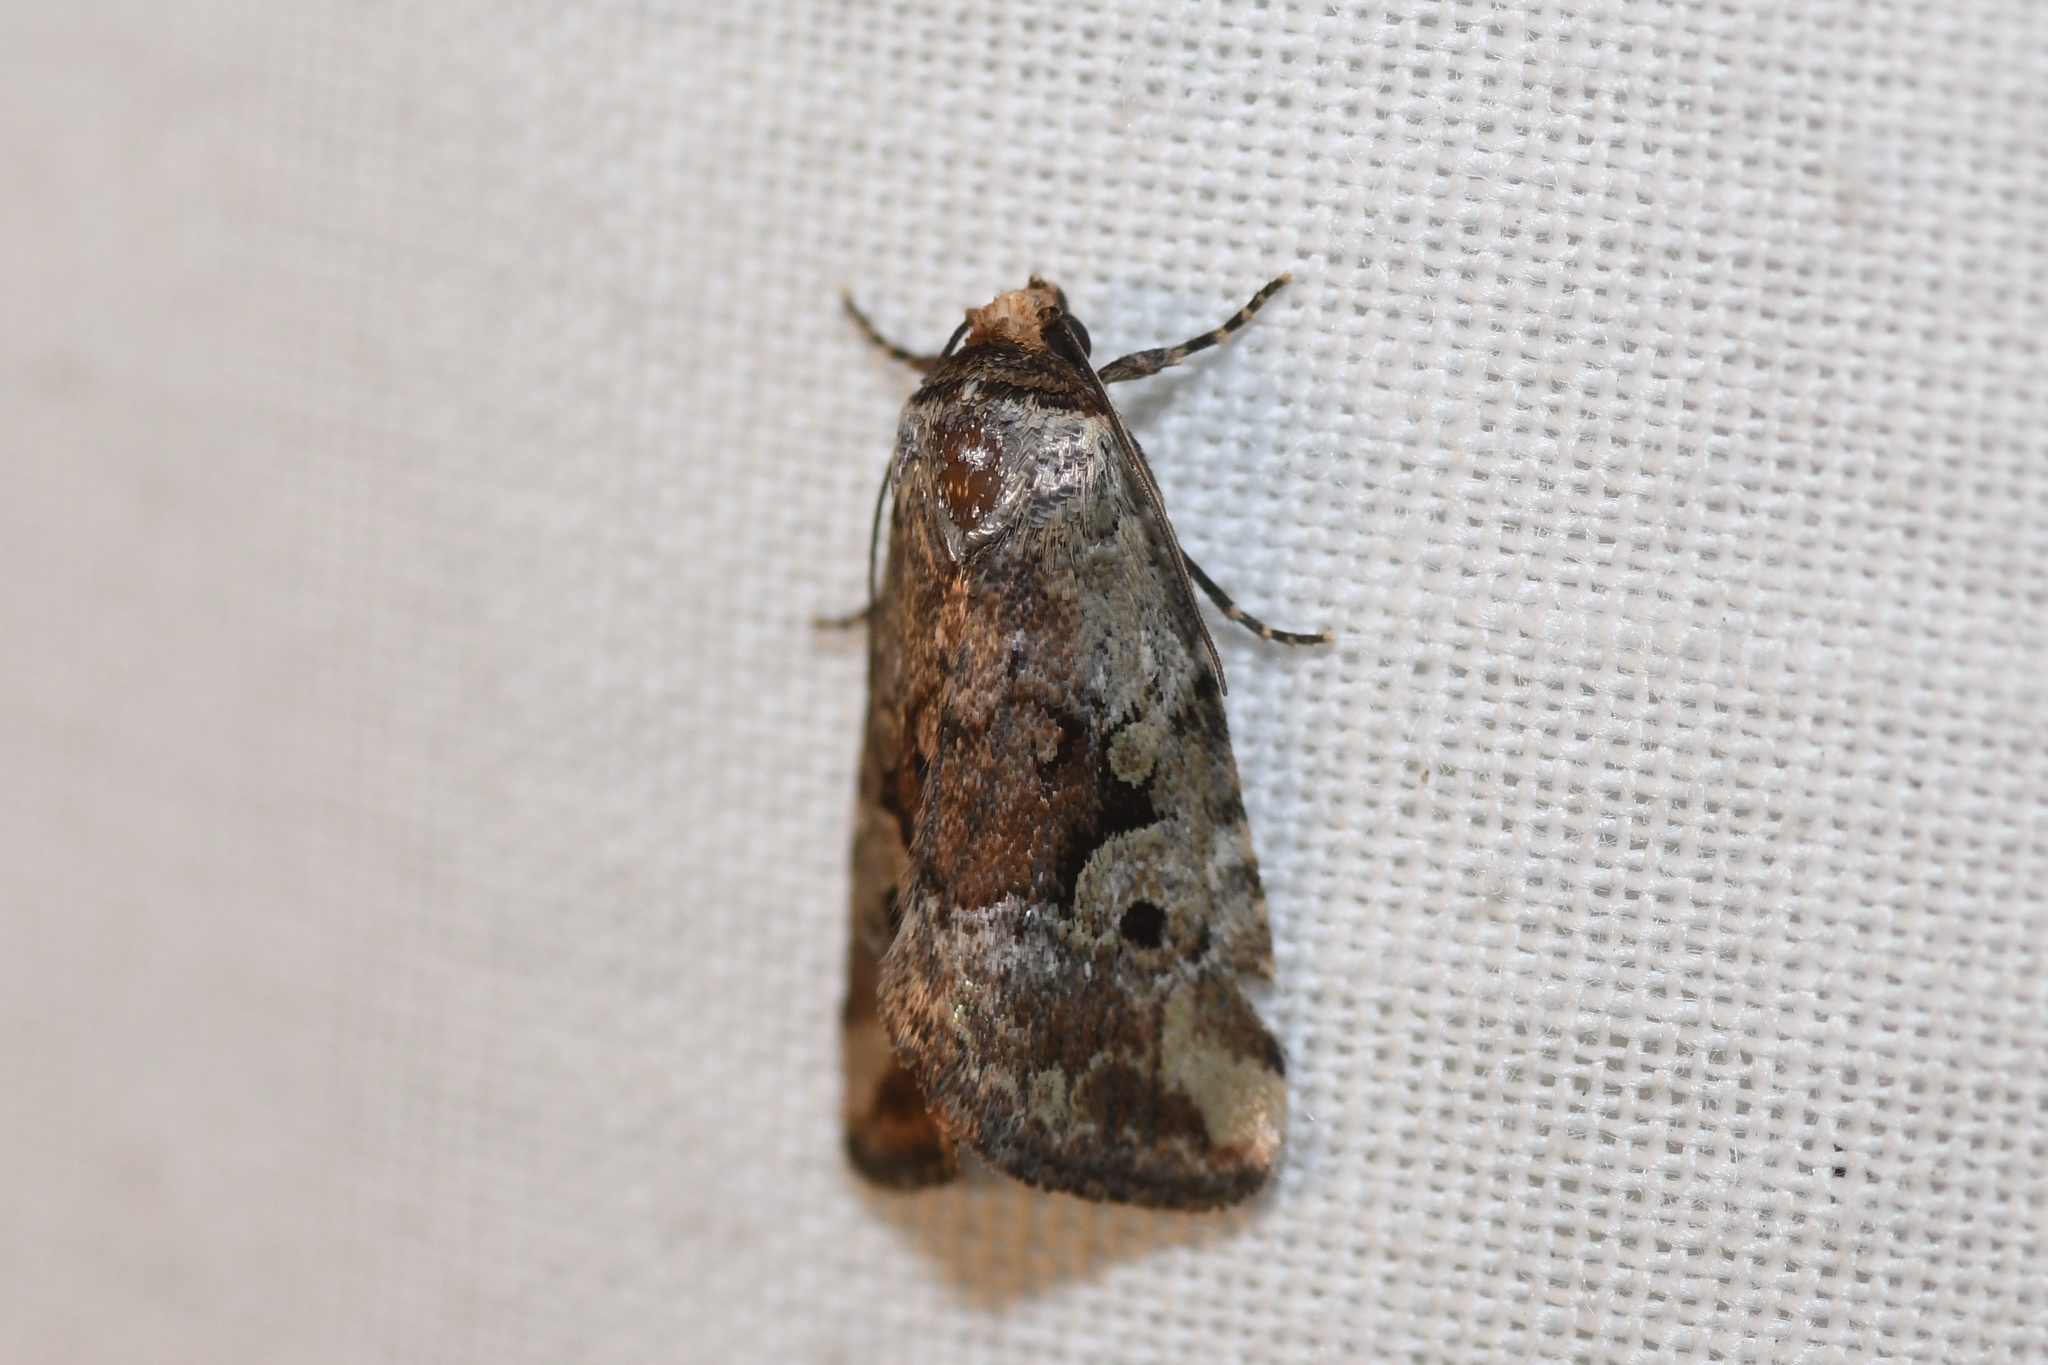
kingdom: Animalia
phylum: Arthropoda
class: Insecta
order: Lepidoptera
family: Noctuidae
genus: Elaphria
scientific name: Elaphria alapallida
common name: Pale-winged midget
